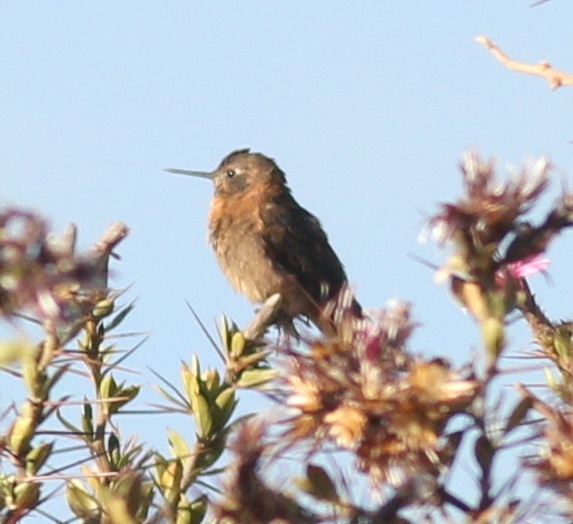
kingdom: Animalia
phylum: Chordata
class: Aves
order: Apodiformes
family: Trochilidae
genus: Aglaeactis
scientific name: Aglaeactis cupripennis
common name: Shining sunbeam
